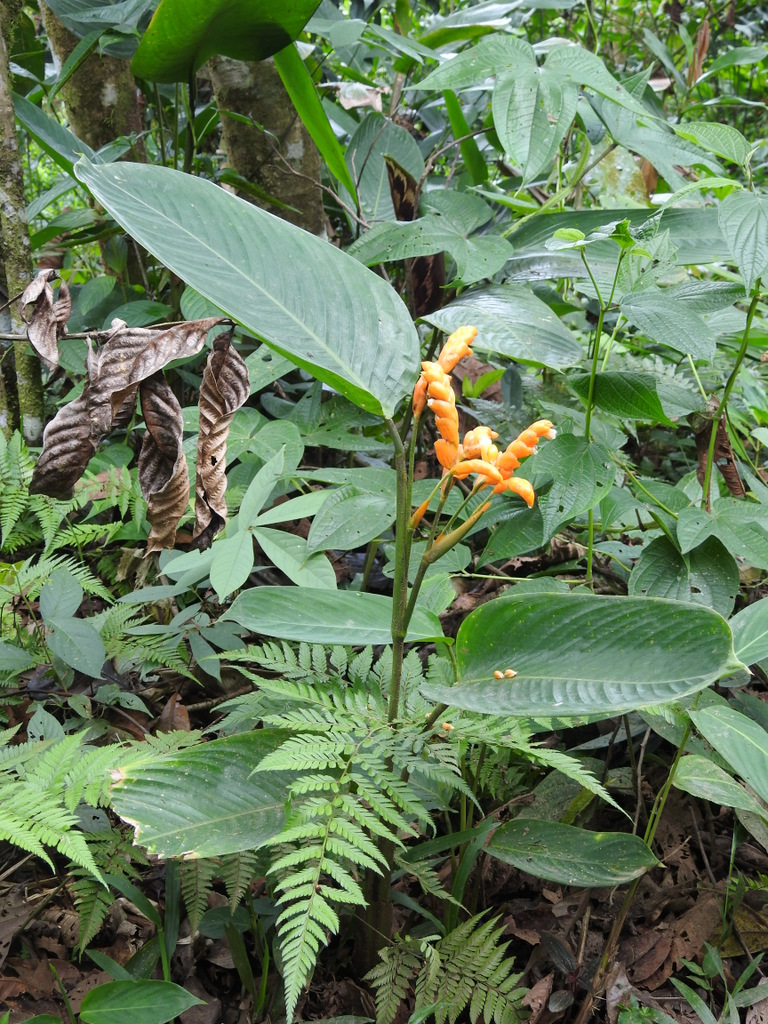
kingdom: Plantae
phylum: Tracheophyta
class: Liliopsida
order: Zingiberales
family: Marantaceae
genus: Stromanthe
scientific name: Stromanthe stromanthoides
